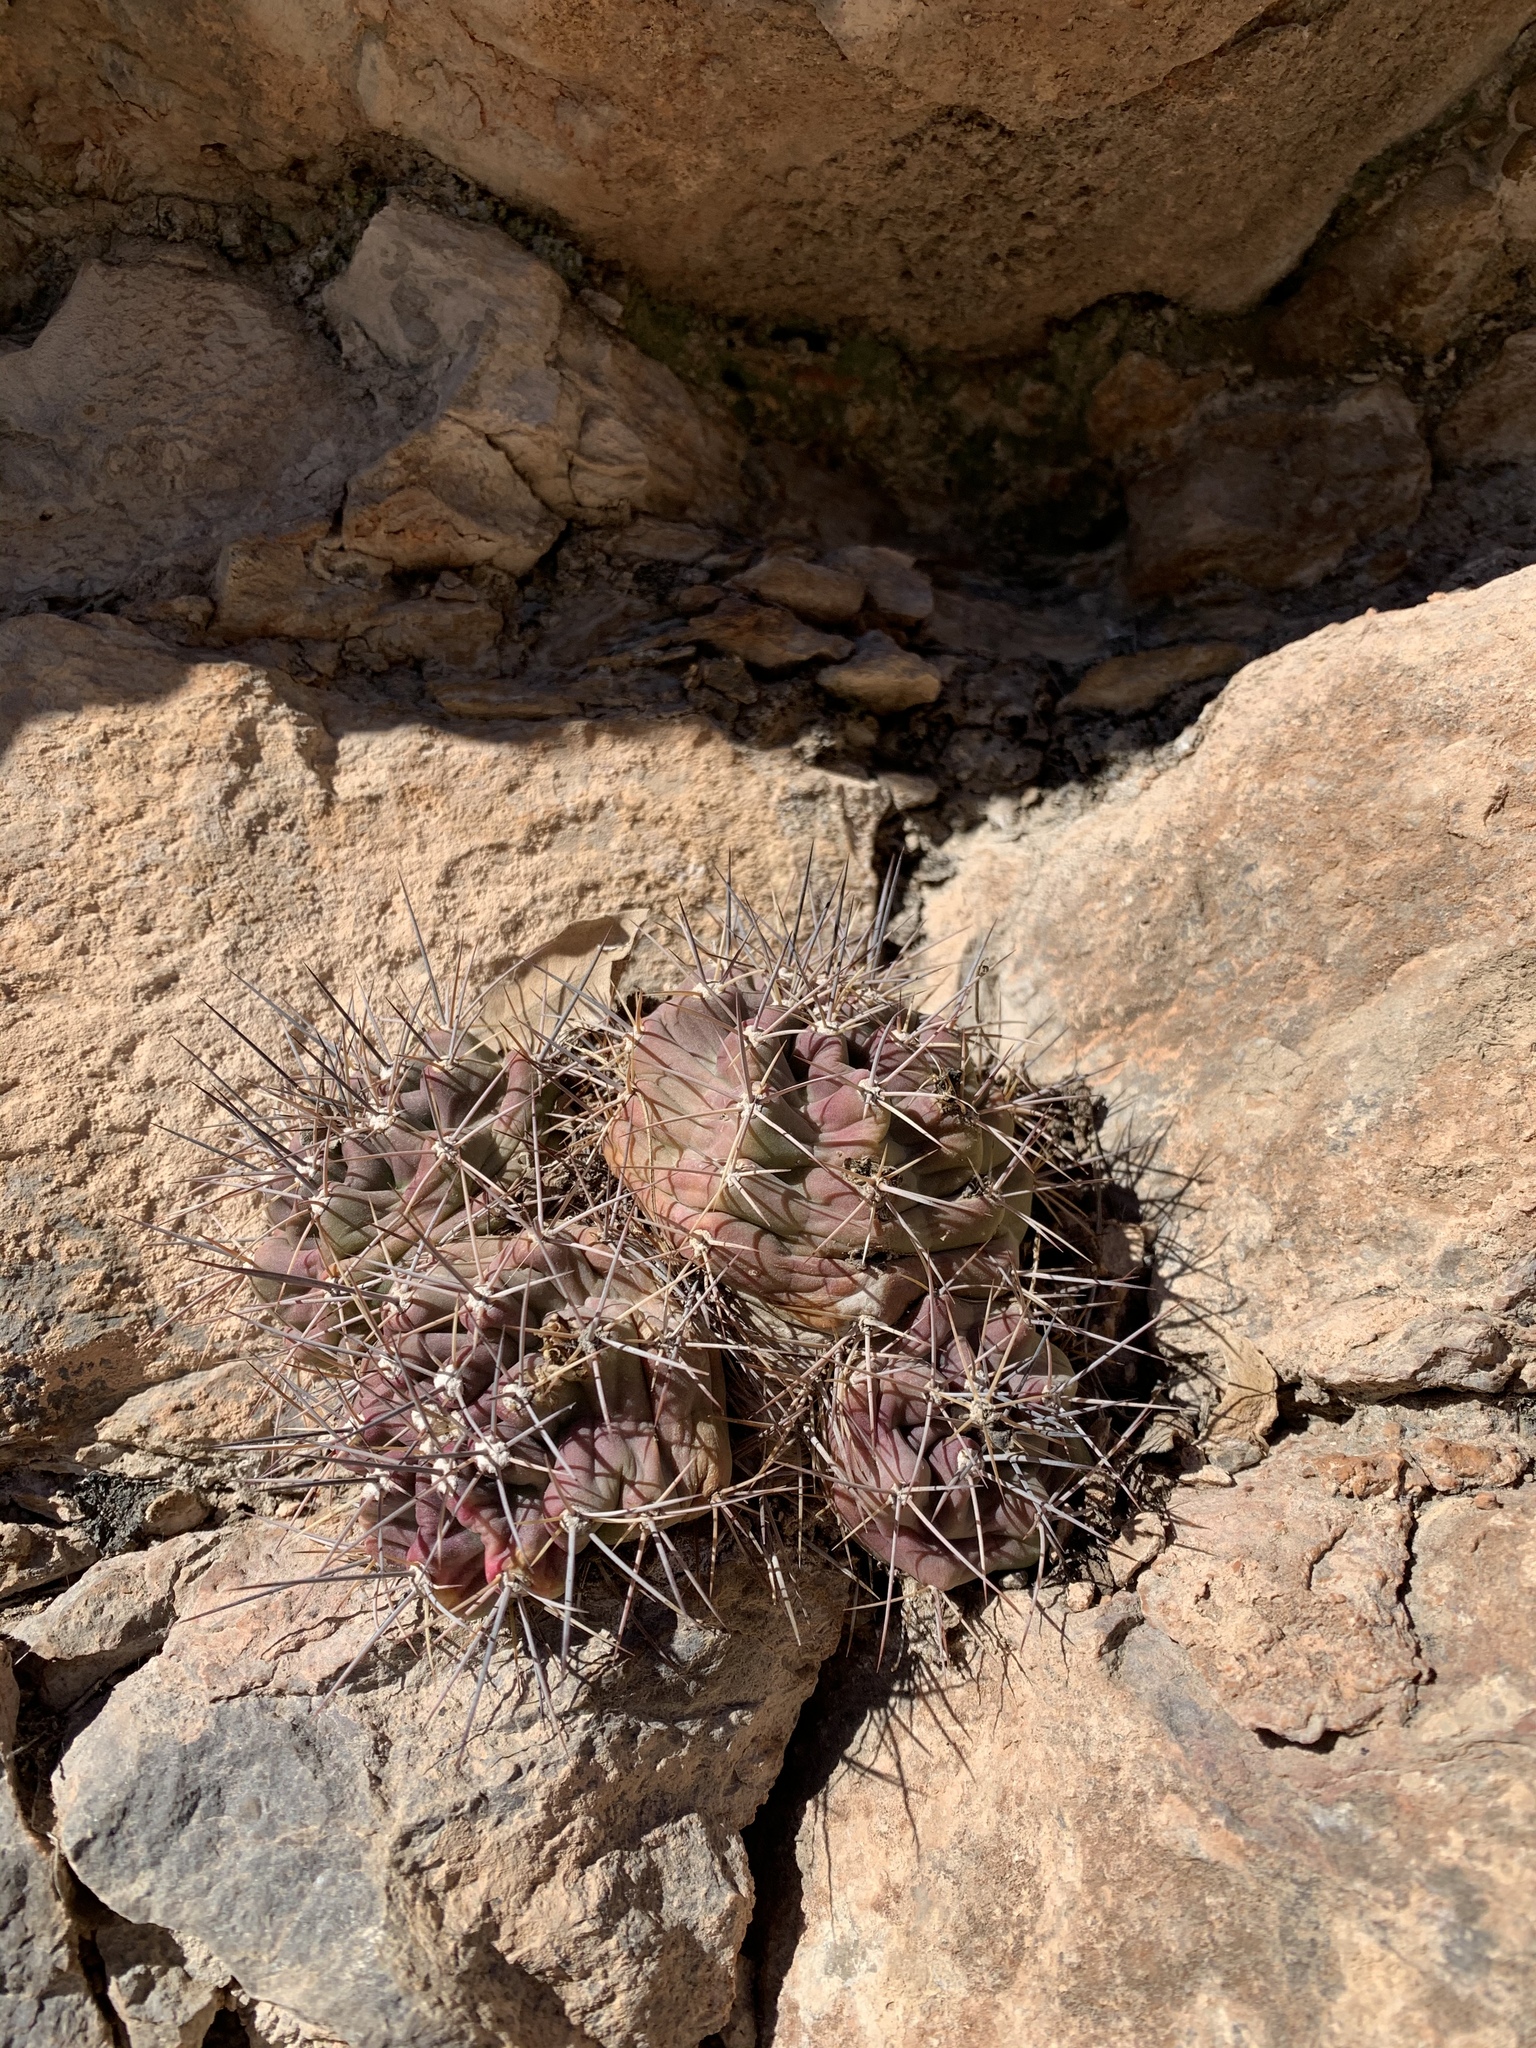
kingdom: Plantae
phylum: Tracheophyta
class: Magnoliopsida
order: Caryophyllales
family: Cactaceae
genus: Echinocereus
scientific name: Echinocereus coccineus
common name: Scarlet hedgehog cactus
